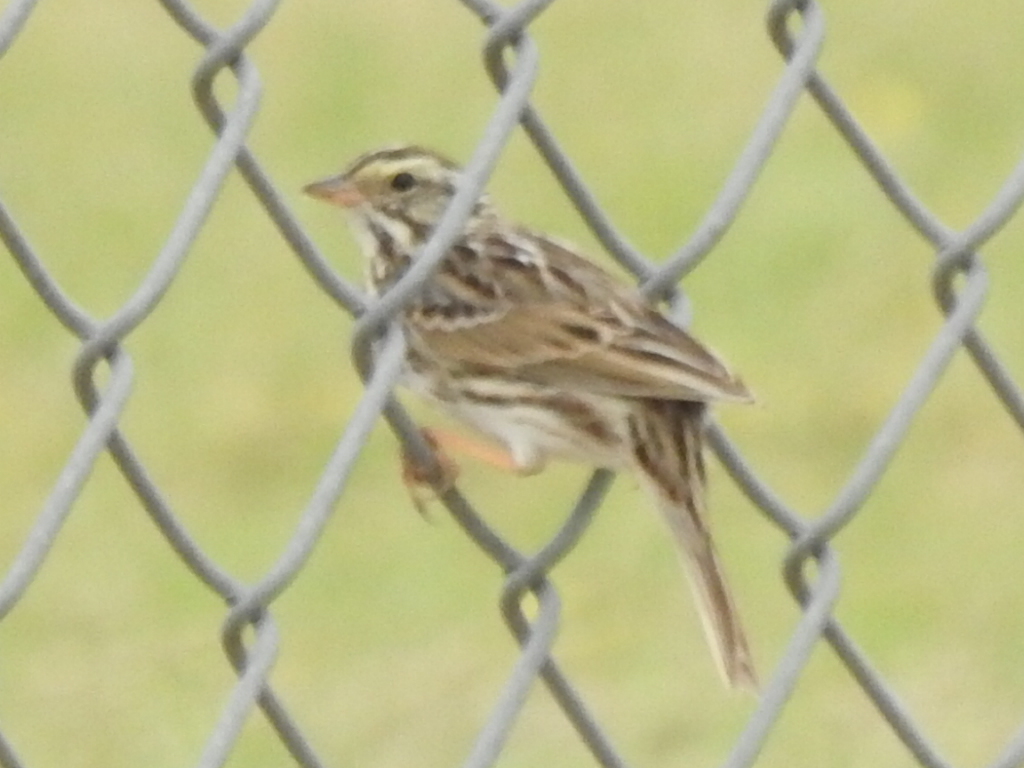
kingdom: Animalia
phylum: Chordata
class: Aves
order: Passeriformes
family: Passerellidae
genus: Passerculus
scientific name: Passerculus sandwichensis
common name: Savannah sparrow
